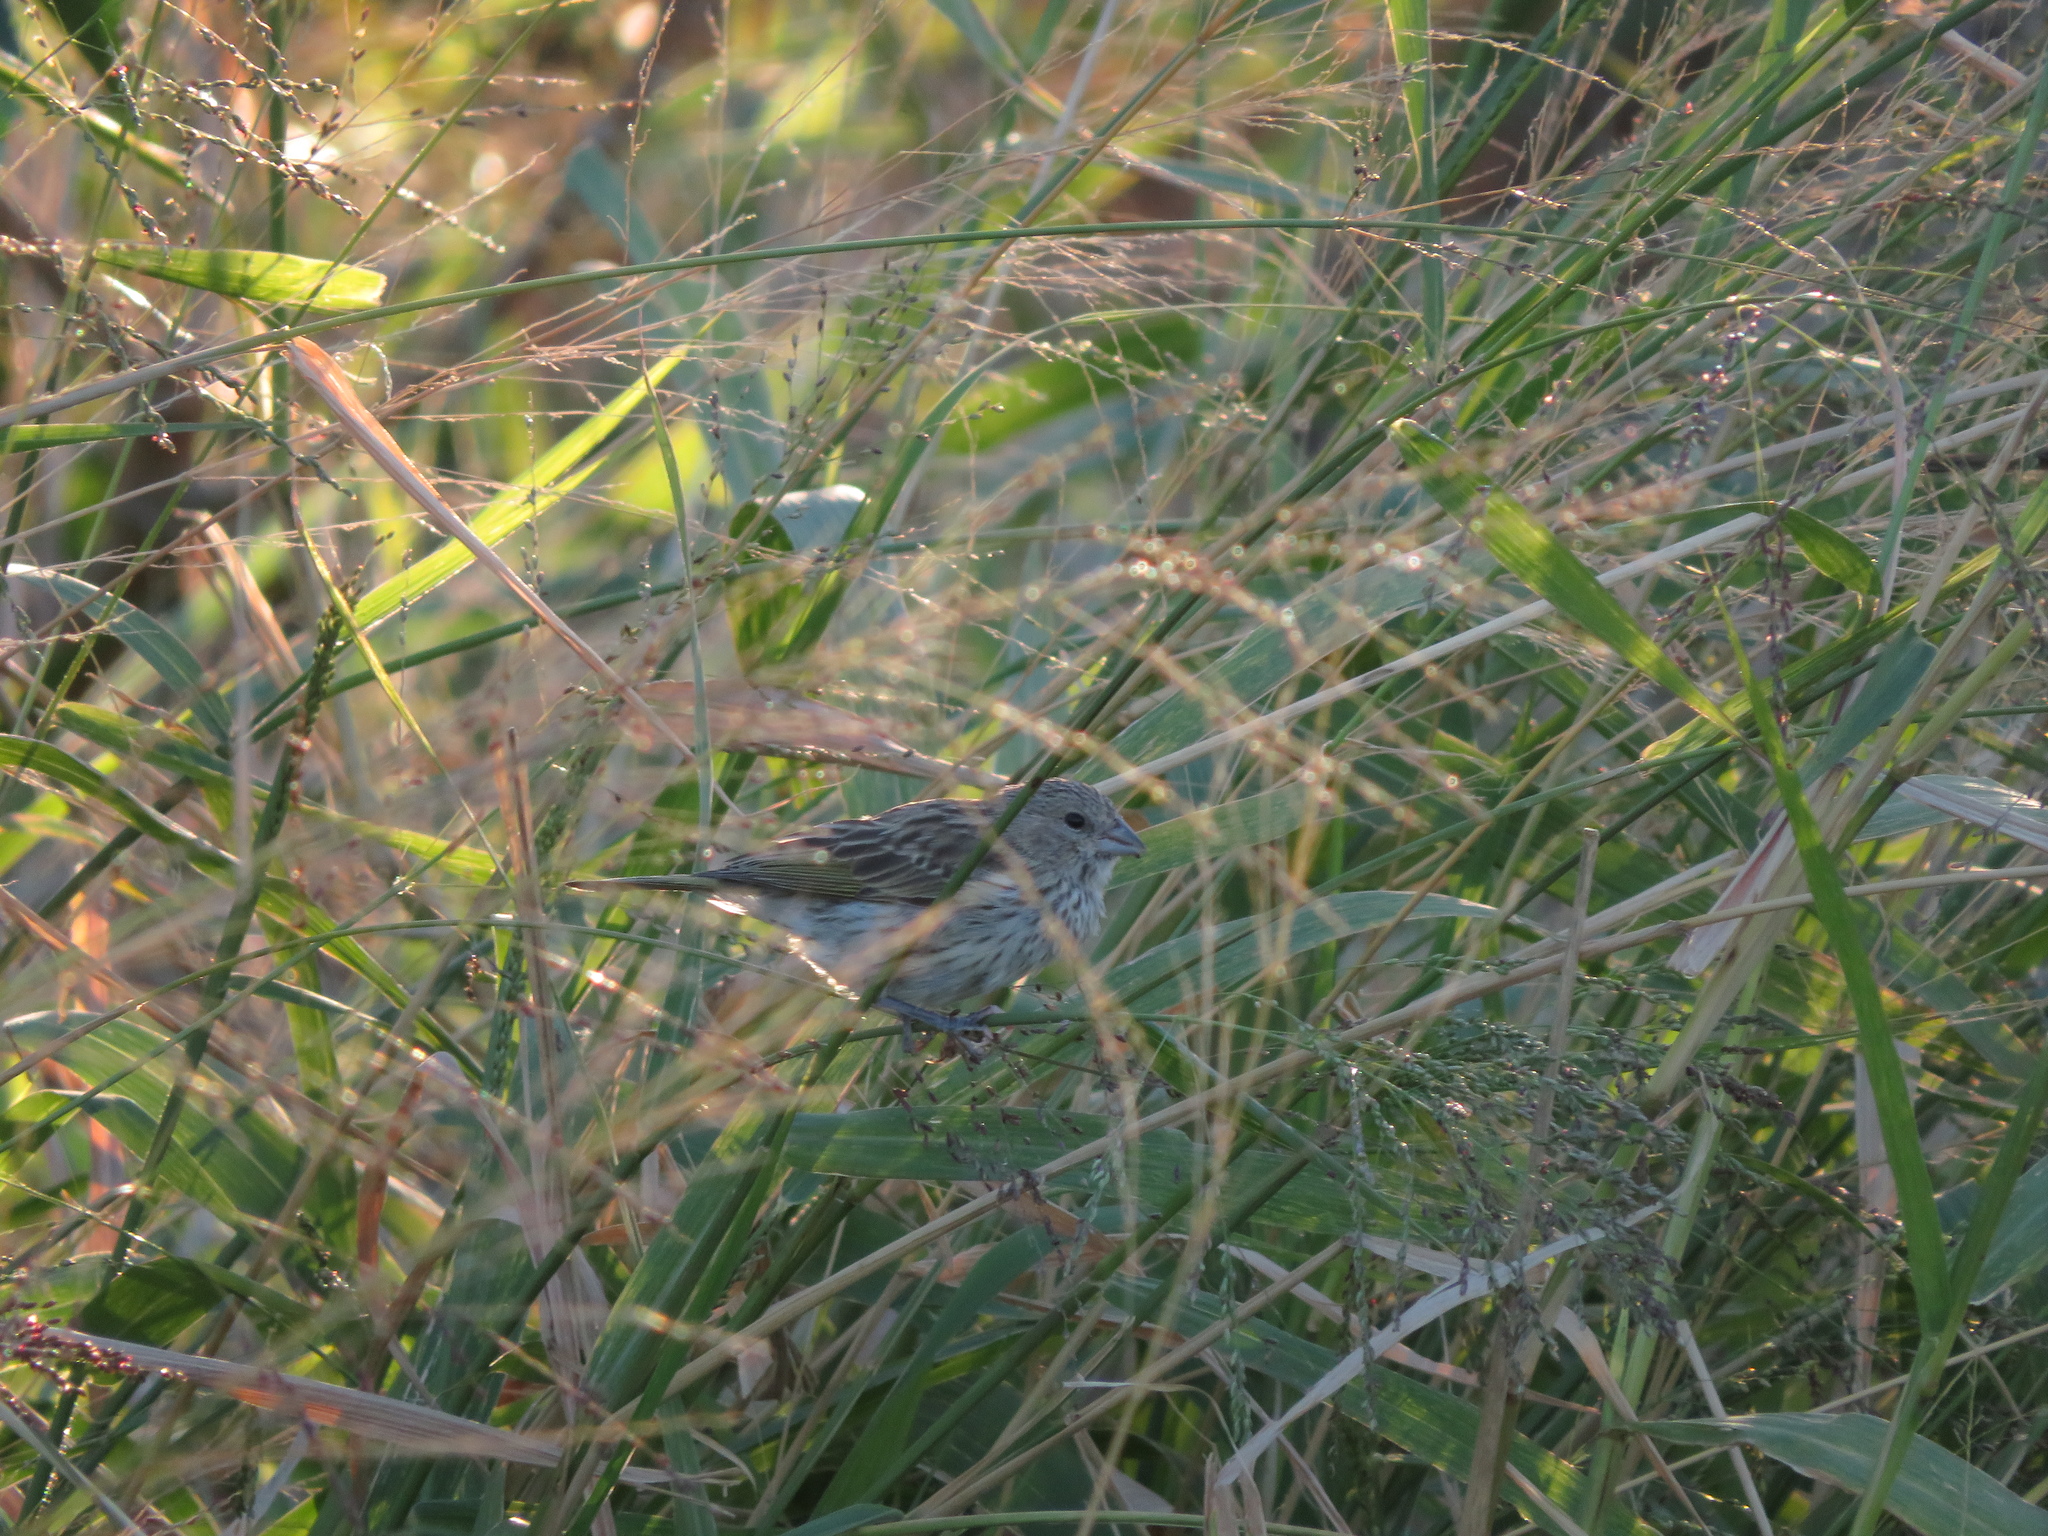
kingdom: Animalia
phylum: Chordata
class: Aves
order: Passeriformes
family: Thraupidae
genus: Sicalis
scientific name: Sicalis flaveola
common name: Saffron finch
